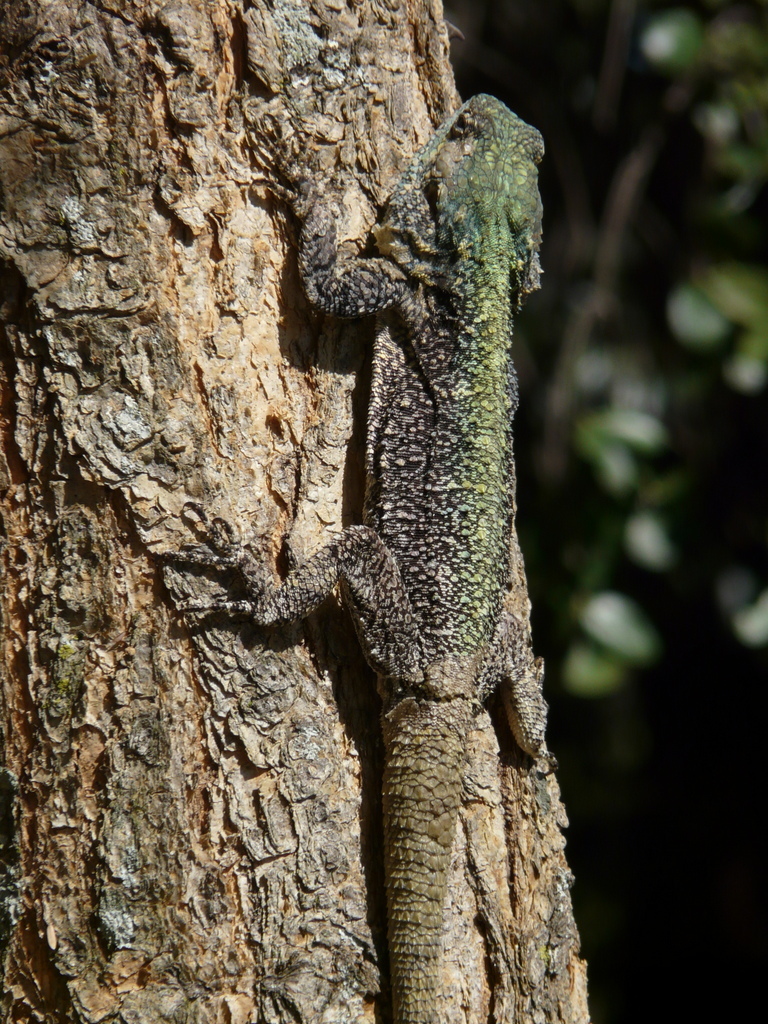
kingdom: Animalia
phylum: Chordata
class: Squamata
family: Agamidae
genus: Acanthocercus
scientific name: Acanthocercus atricollis
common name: Southern tree agama
